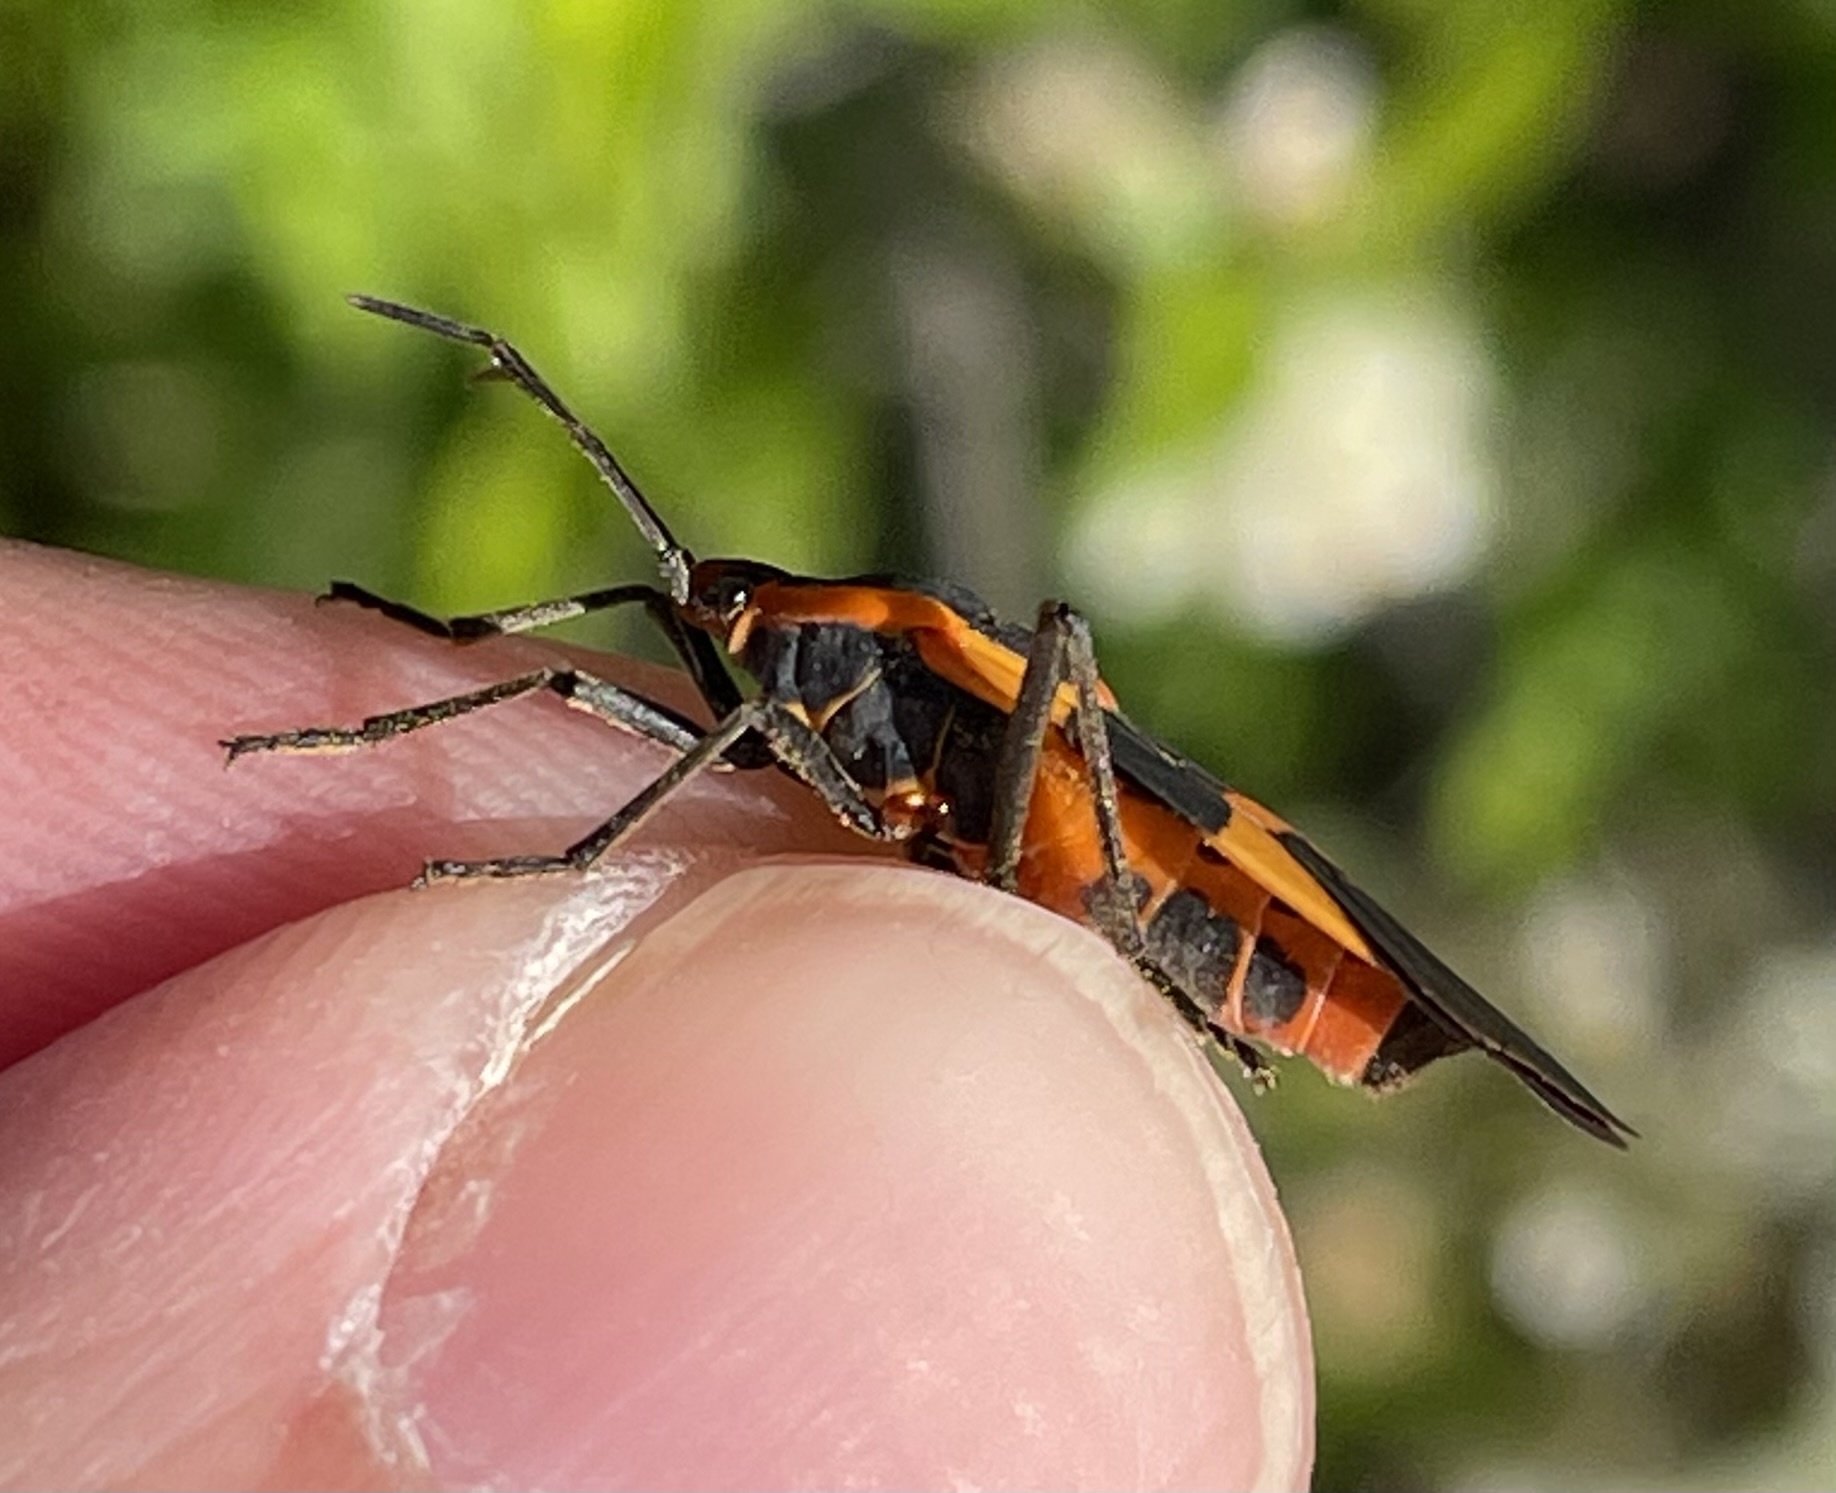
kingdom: Animalia
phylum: Arthropoda
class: Insecta
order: Hemiptera
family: Lygaeidae
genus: Oncopeltus
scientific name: Oncopeltus fasciatus
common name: Large milkweed bug
